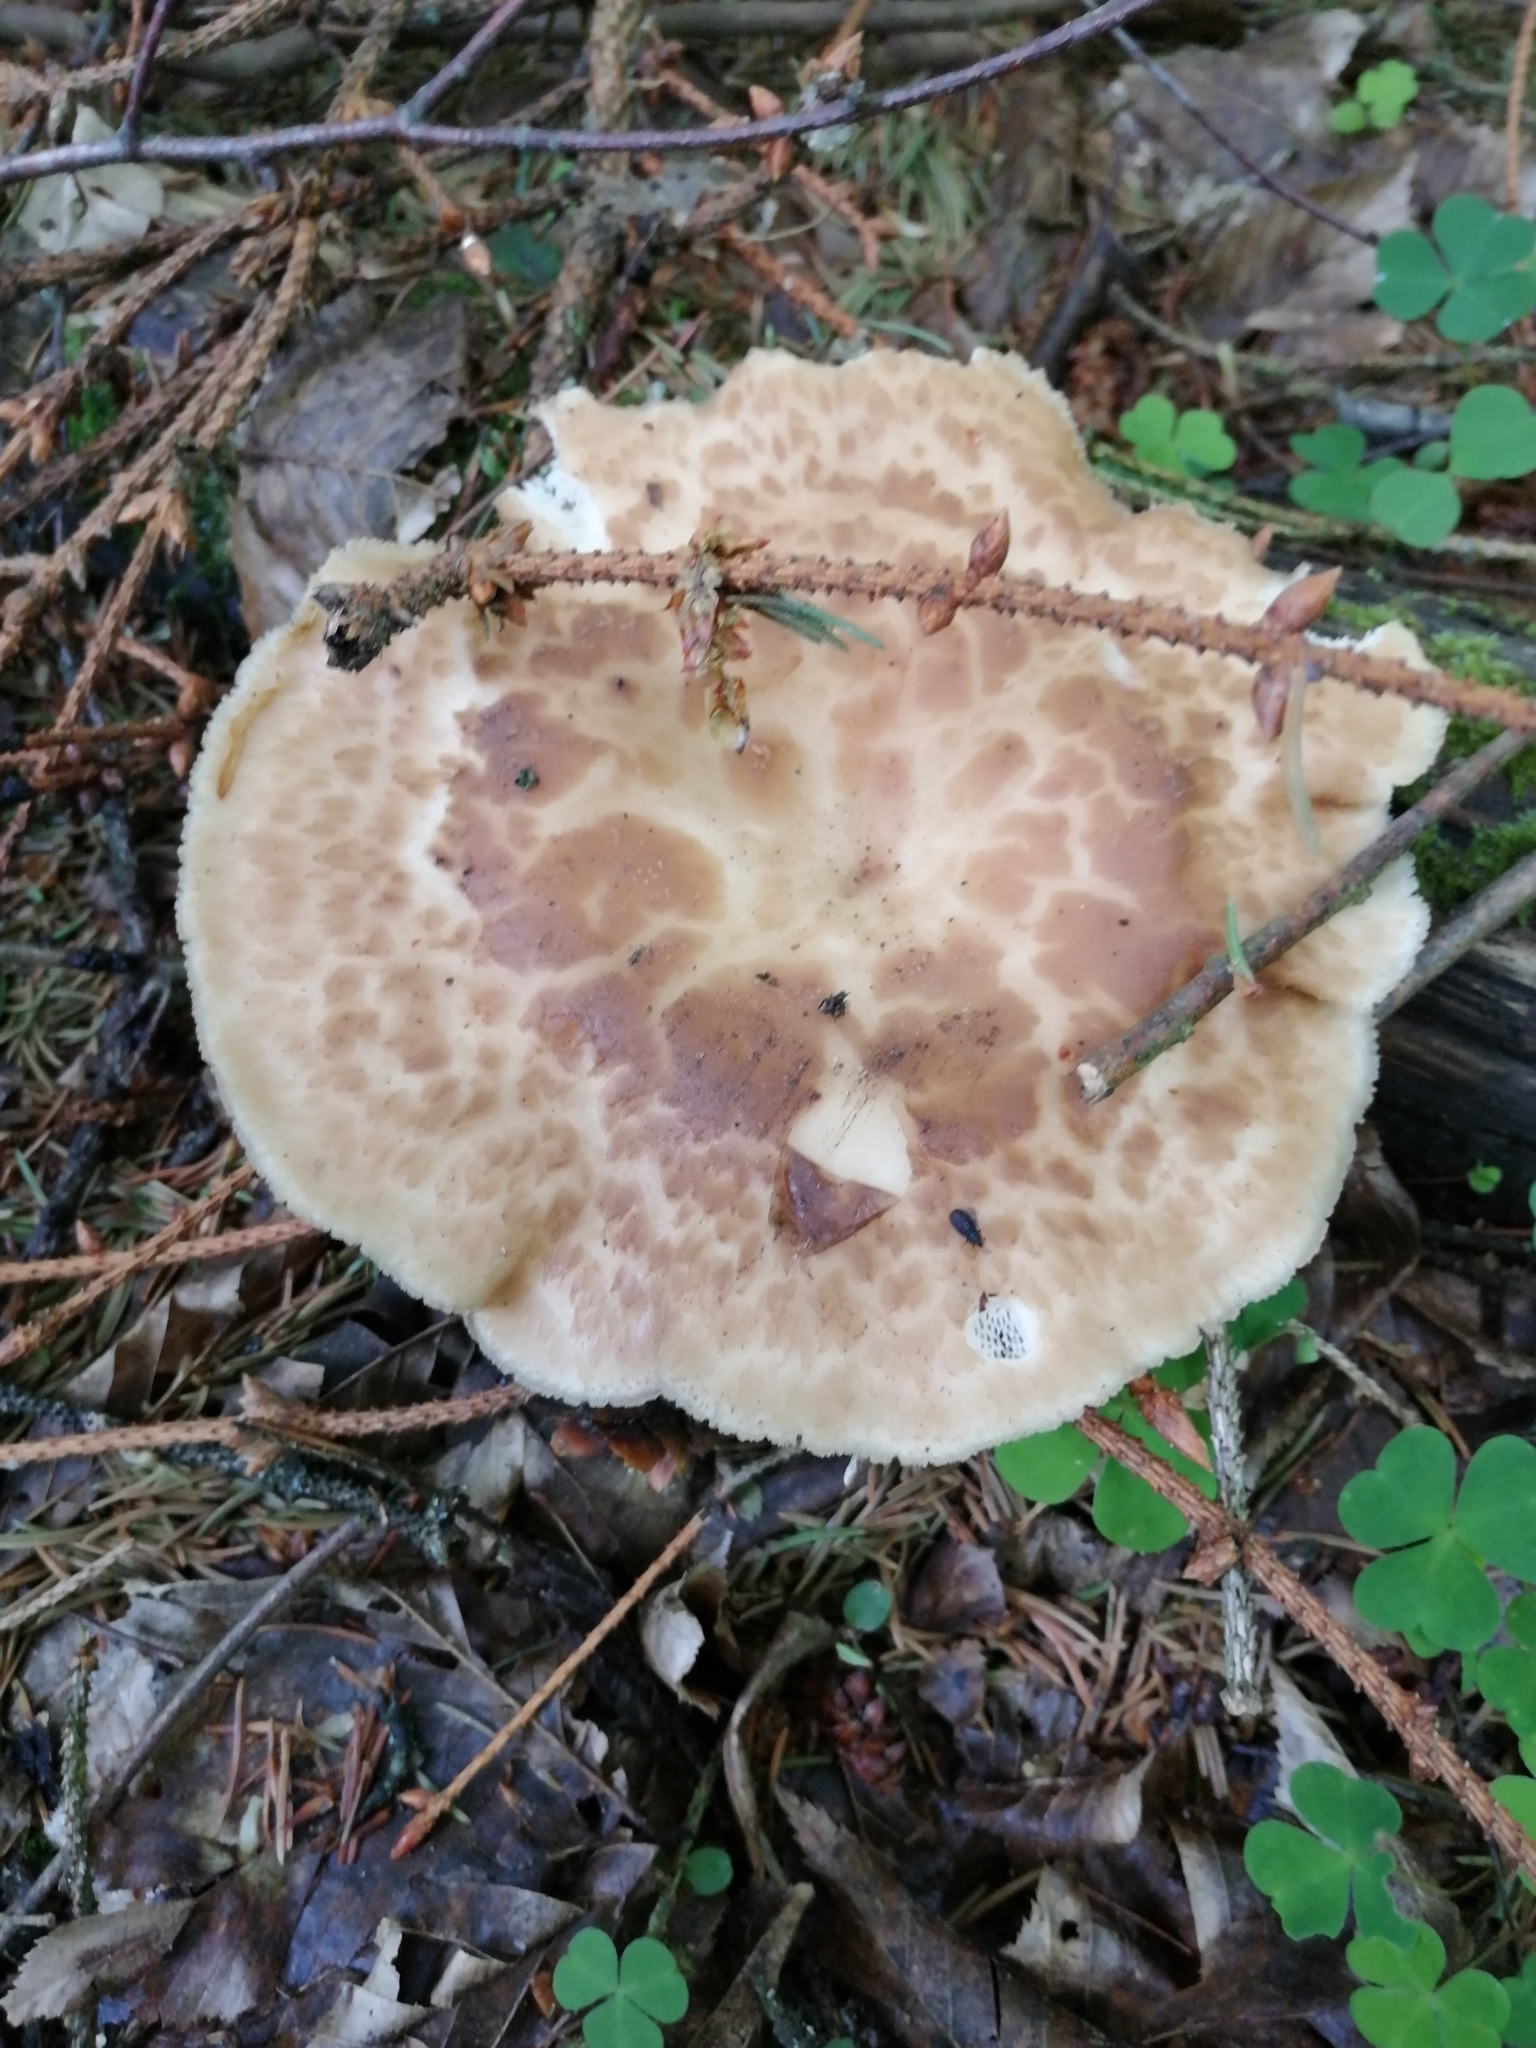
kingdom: Fungi
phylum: Basidiomycota
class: Agaricomycetes
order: Polyporales
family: Polyporaceae
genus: Cerioporus
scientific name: Cerioporus squamosus
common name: Dryad's saddle
